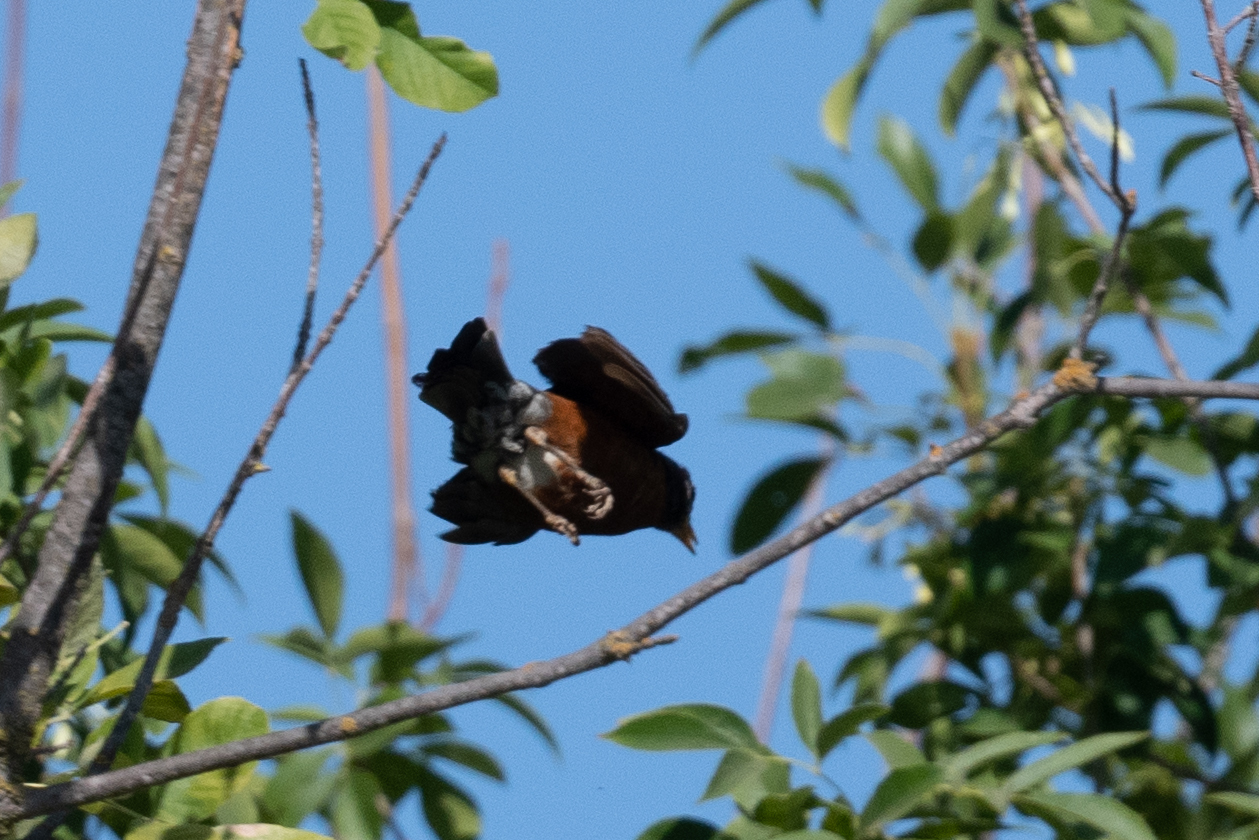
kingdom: Animalia
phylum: Chordata
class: Aves
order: Passeriformes
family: Turdidae
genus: Turdus
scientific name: Turdus migratorius
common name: American robin
